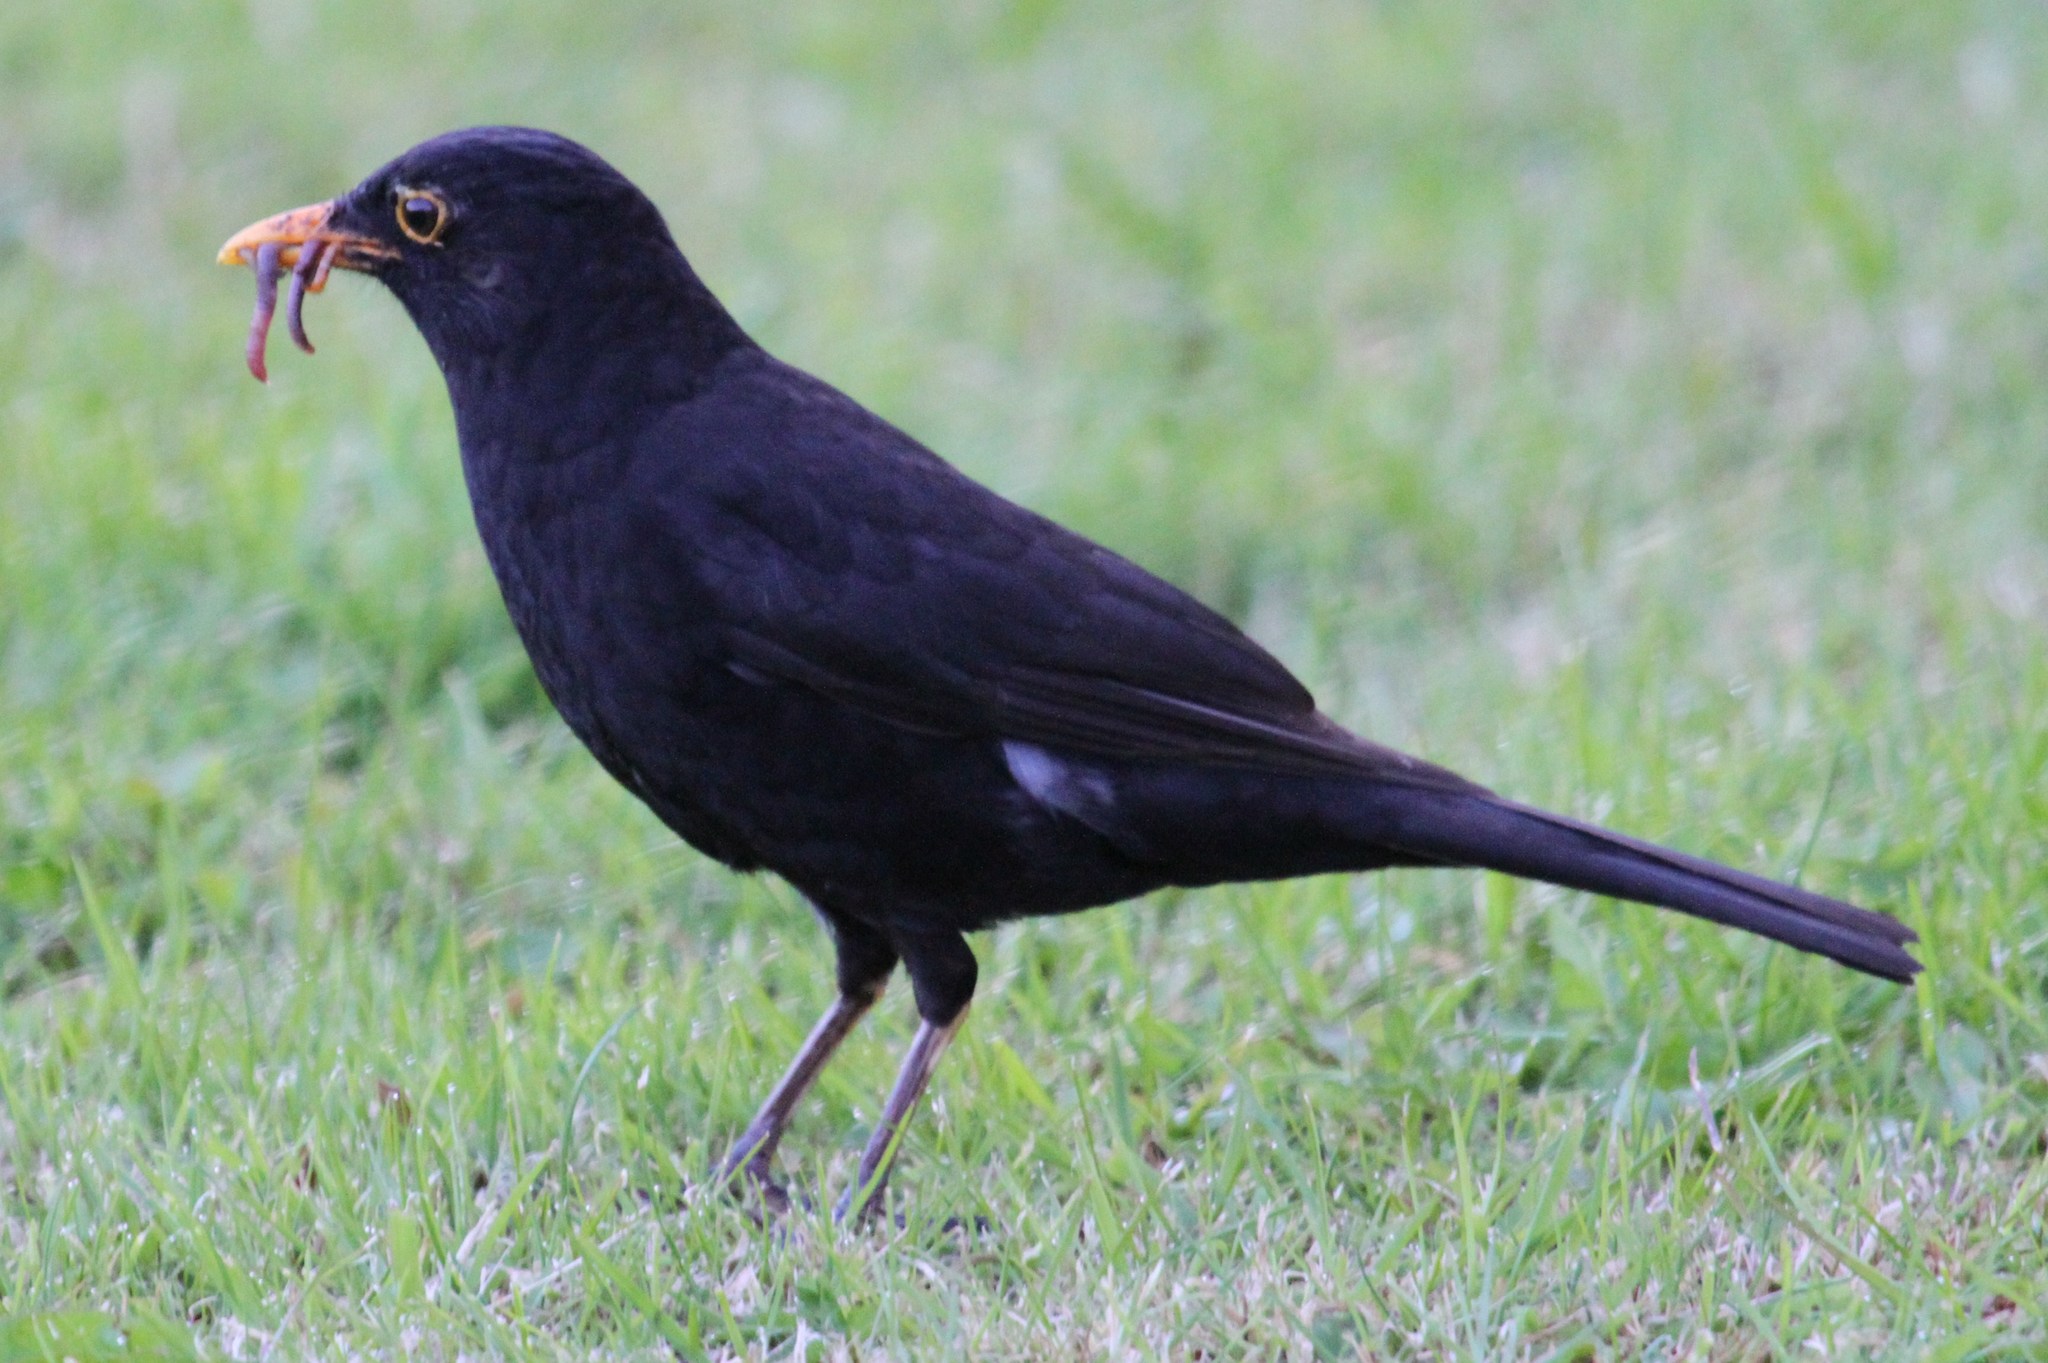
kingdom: Animalia
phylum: Chordata
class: Aves
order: Passeriformes
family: Turdidae
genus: Turdus
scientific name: Turdus merula
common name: Common blackbird
